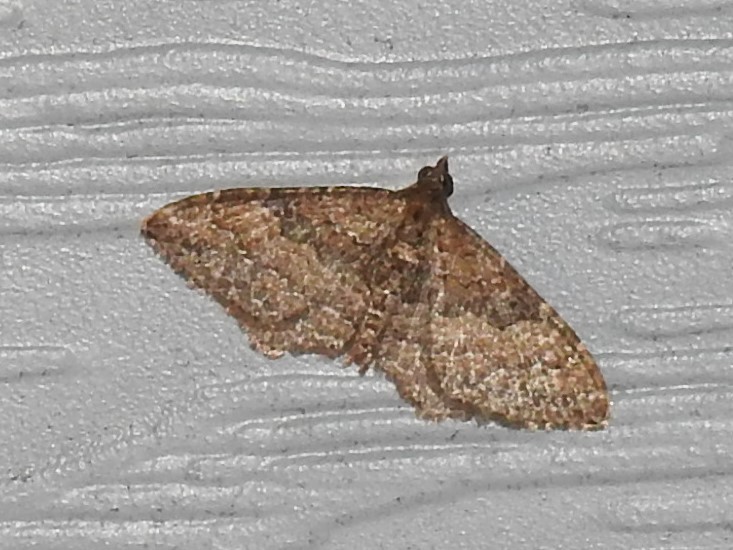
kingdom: Animalia
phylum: Arthropoda
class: Insecta
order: Lepidoptera
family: Geometridae
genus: Orthonama
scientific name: Orthonama obstipata
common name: The gem
